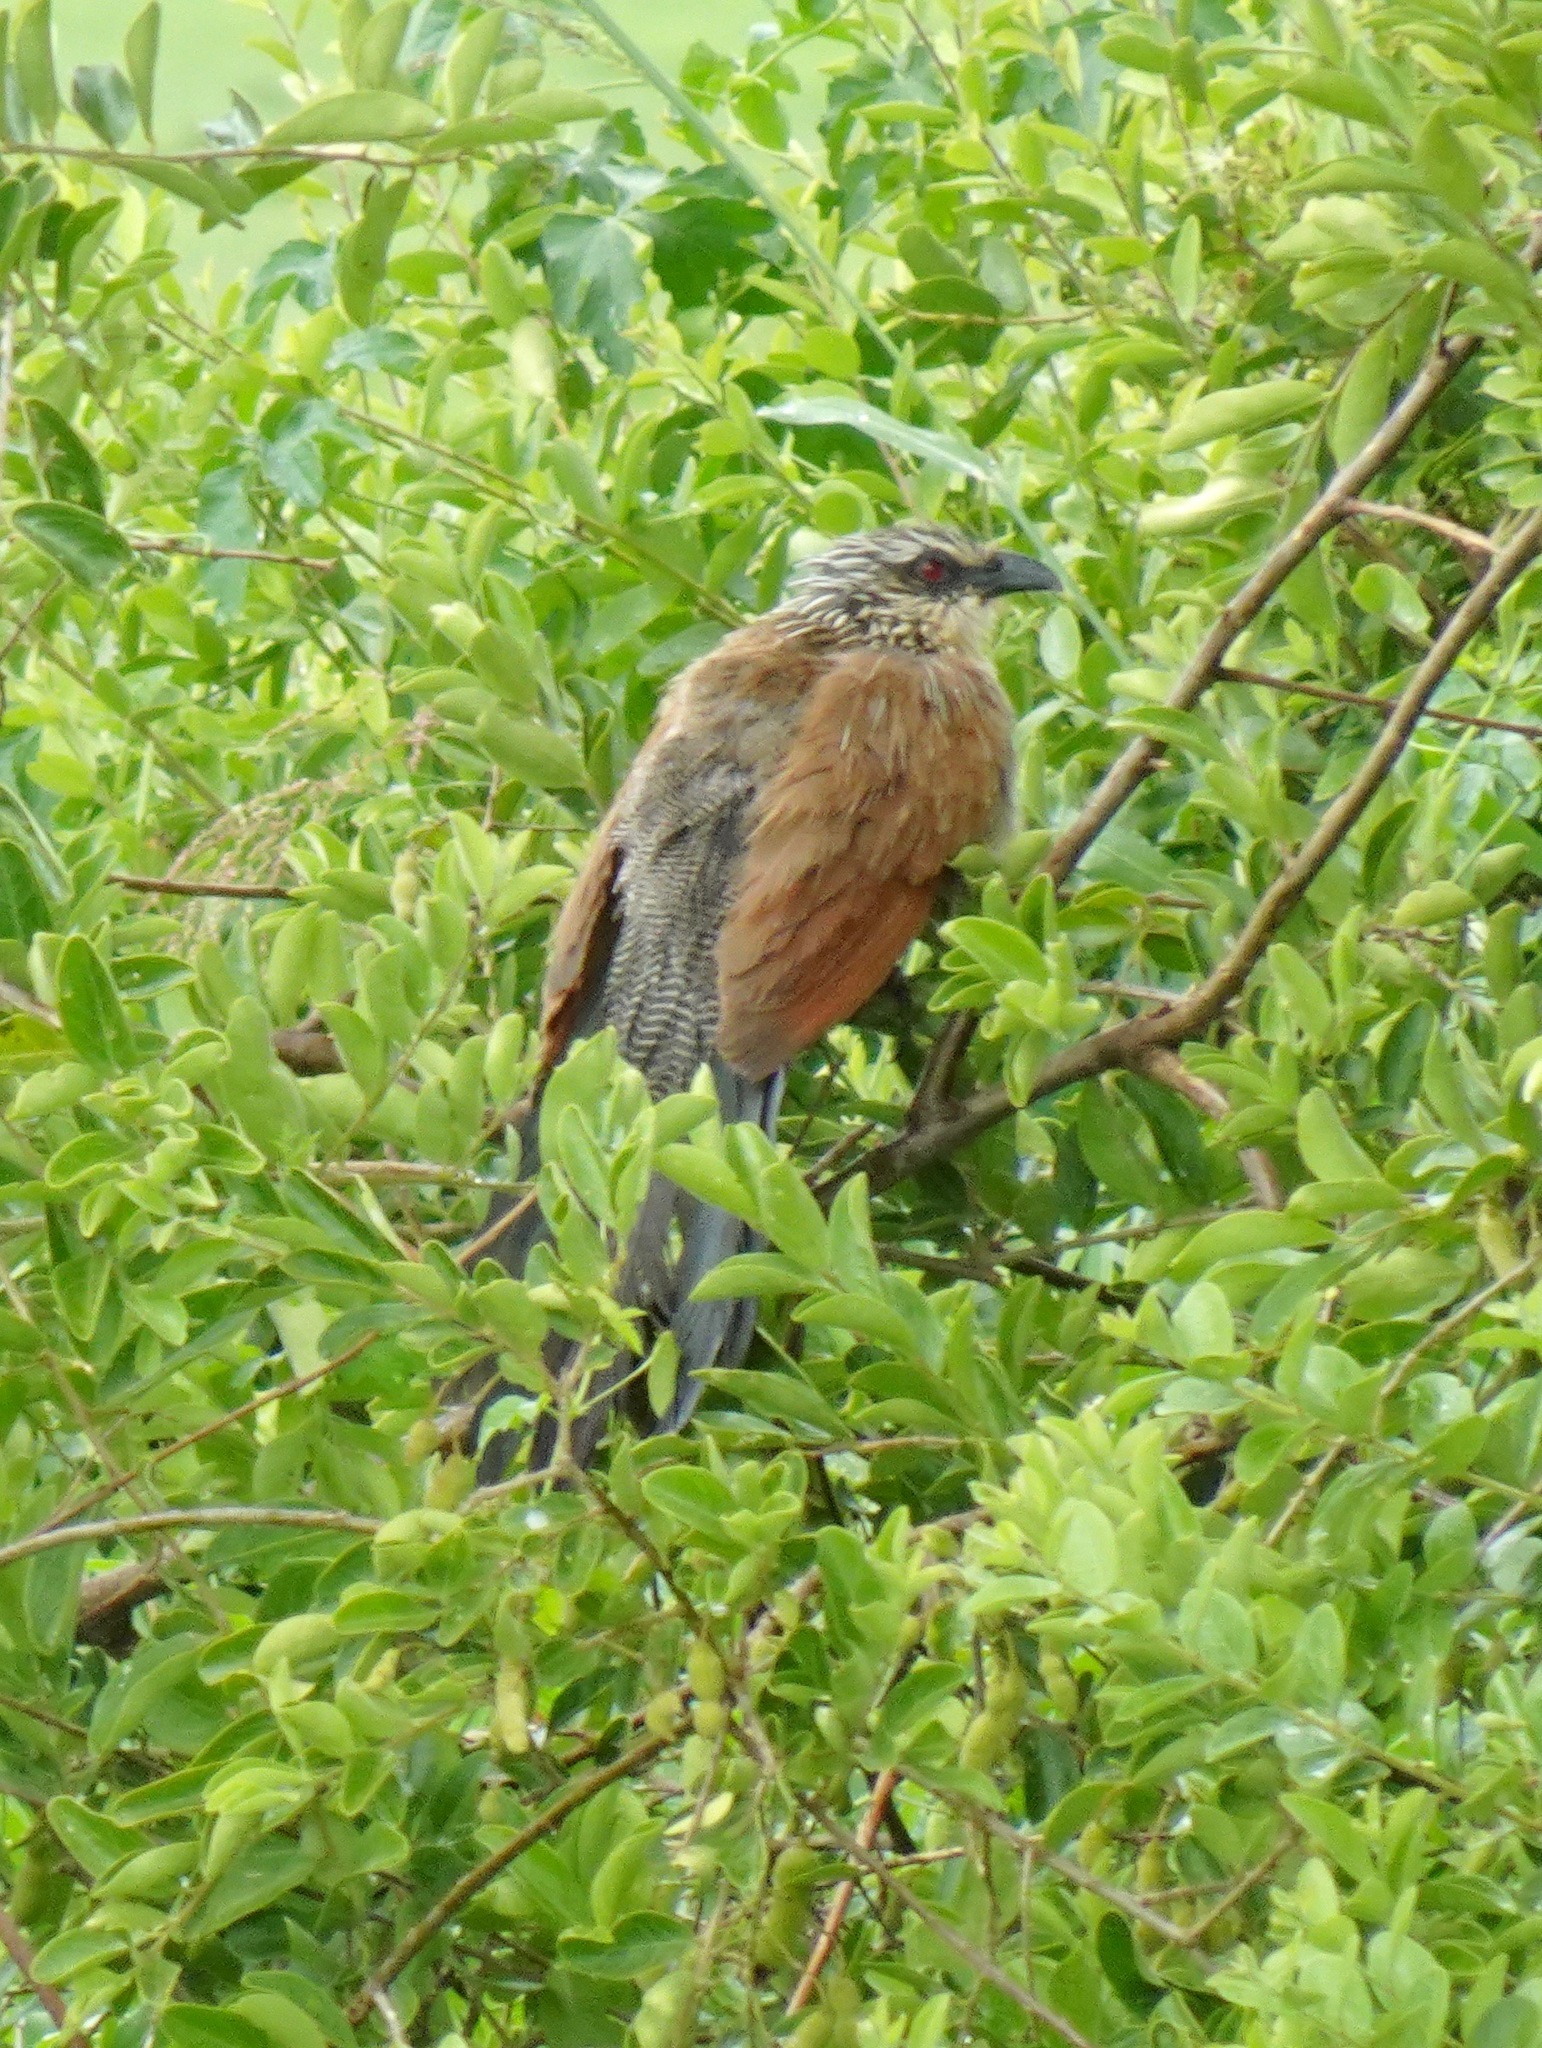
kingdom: Animalia
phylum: Chordata
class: Aves
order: Cuculiformes
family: Cuculidae
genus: Centropus
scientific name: Centropus superciliosus
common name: White-browed coucal
